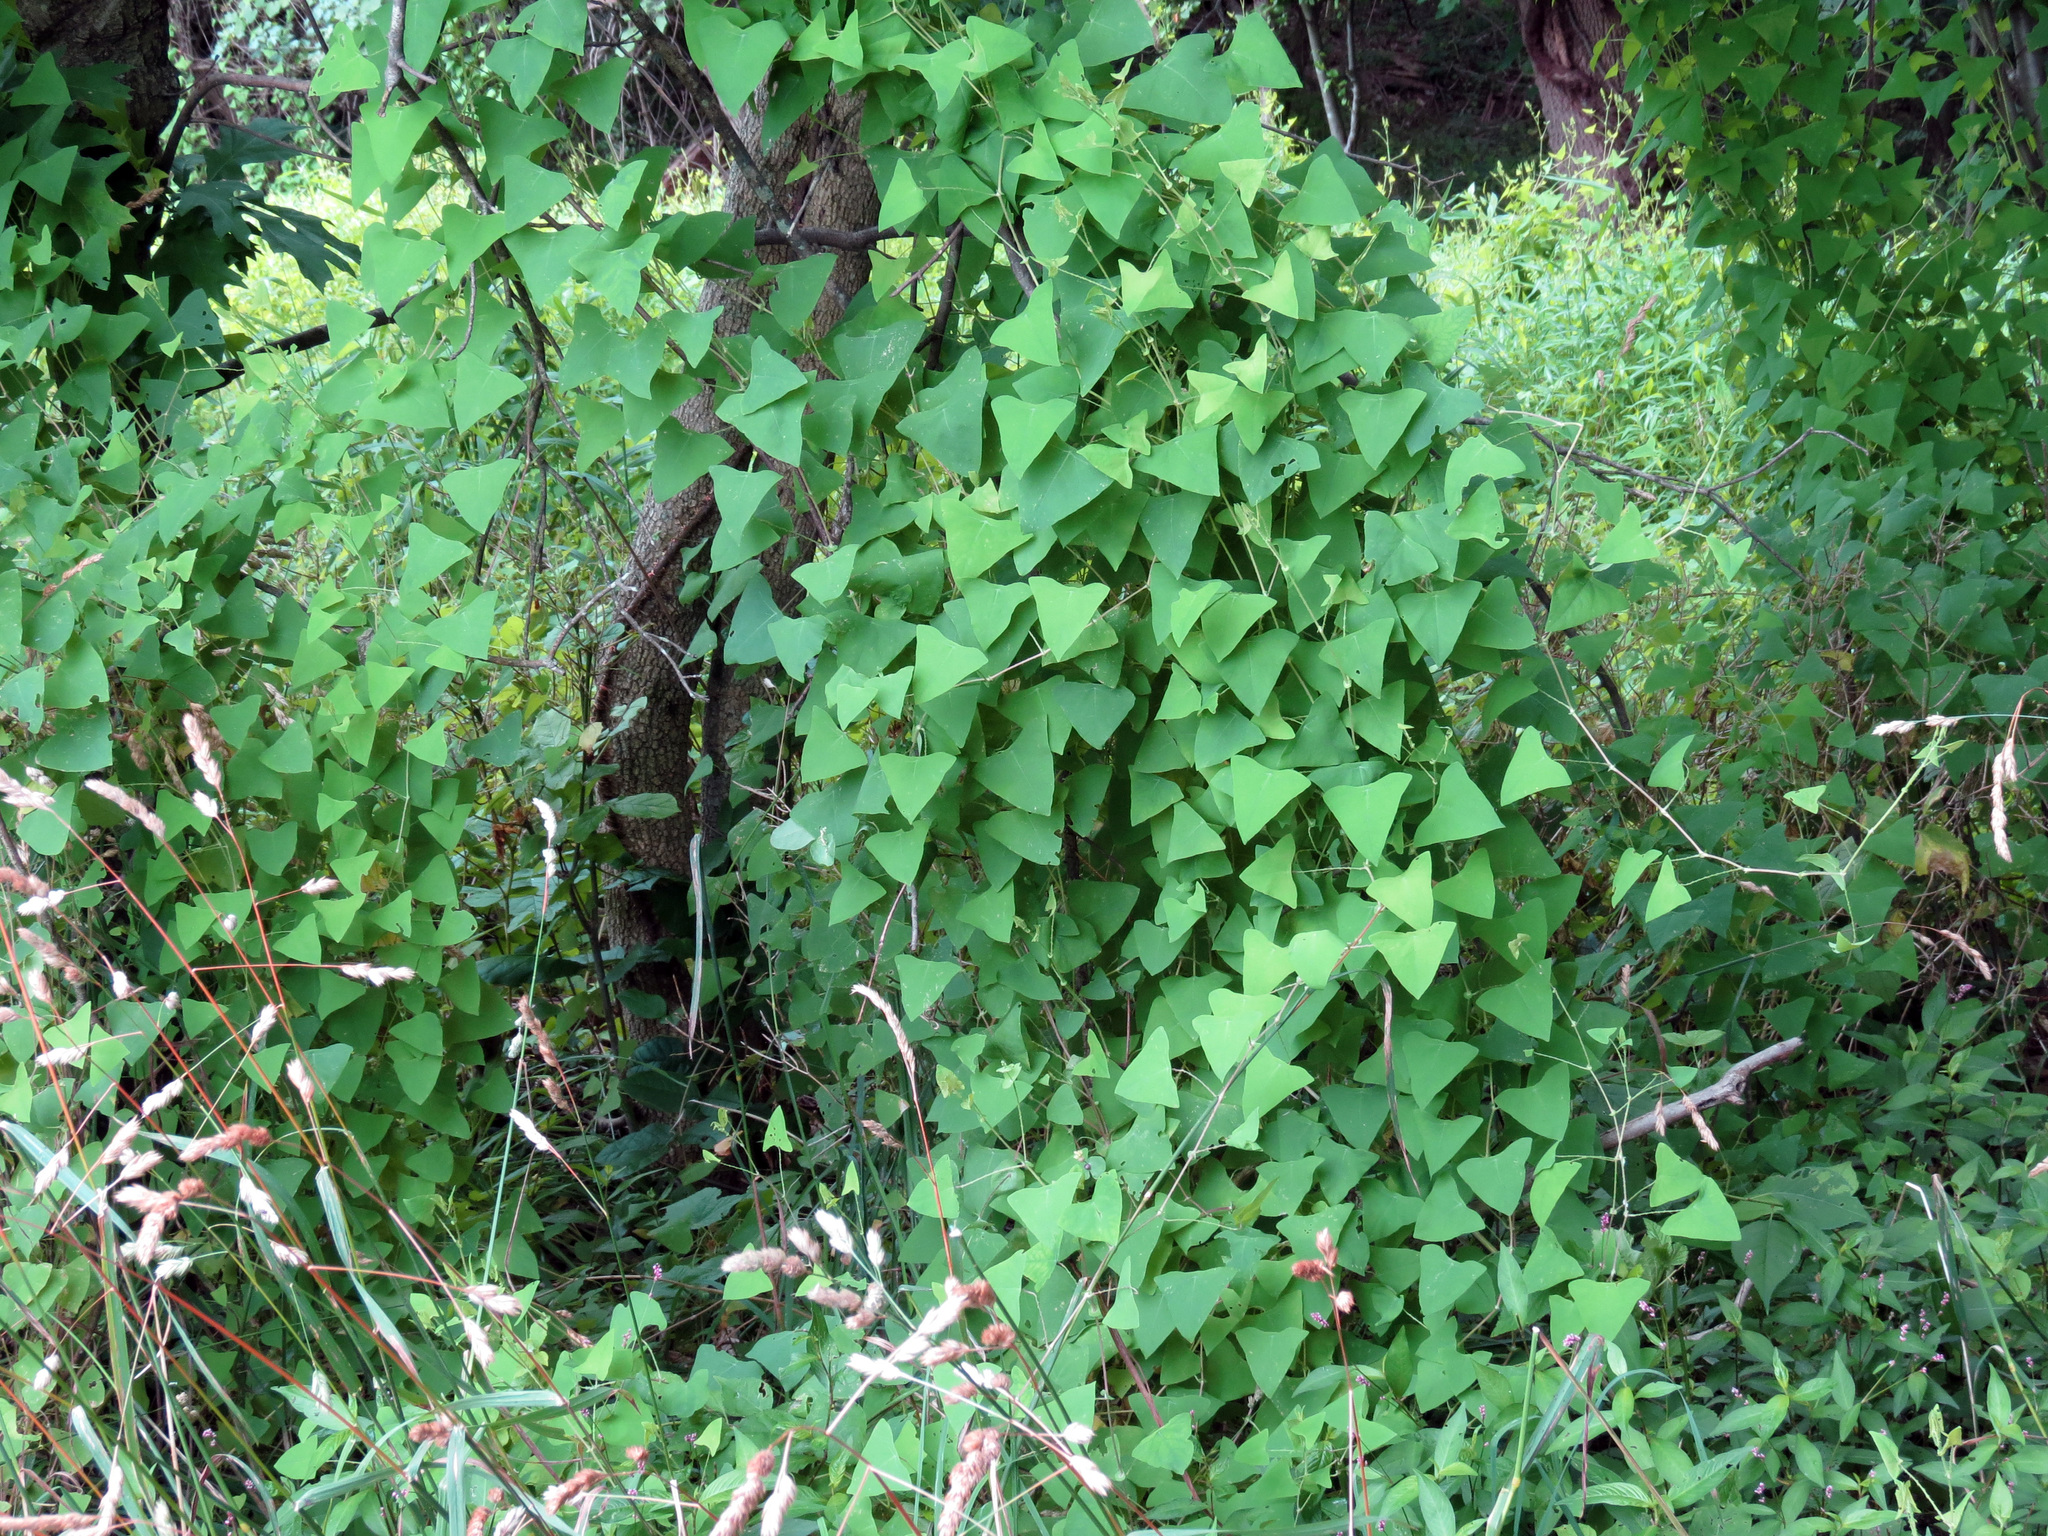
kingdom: Plantae
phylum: Tracheophyta
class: Magnoliopsida
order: Caryophyllales
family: Polygonaceae
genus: Persicaria
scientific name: Persicaria perfoliata
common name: Asiatic tearthumb
